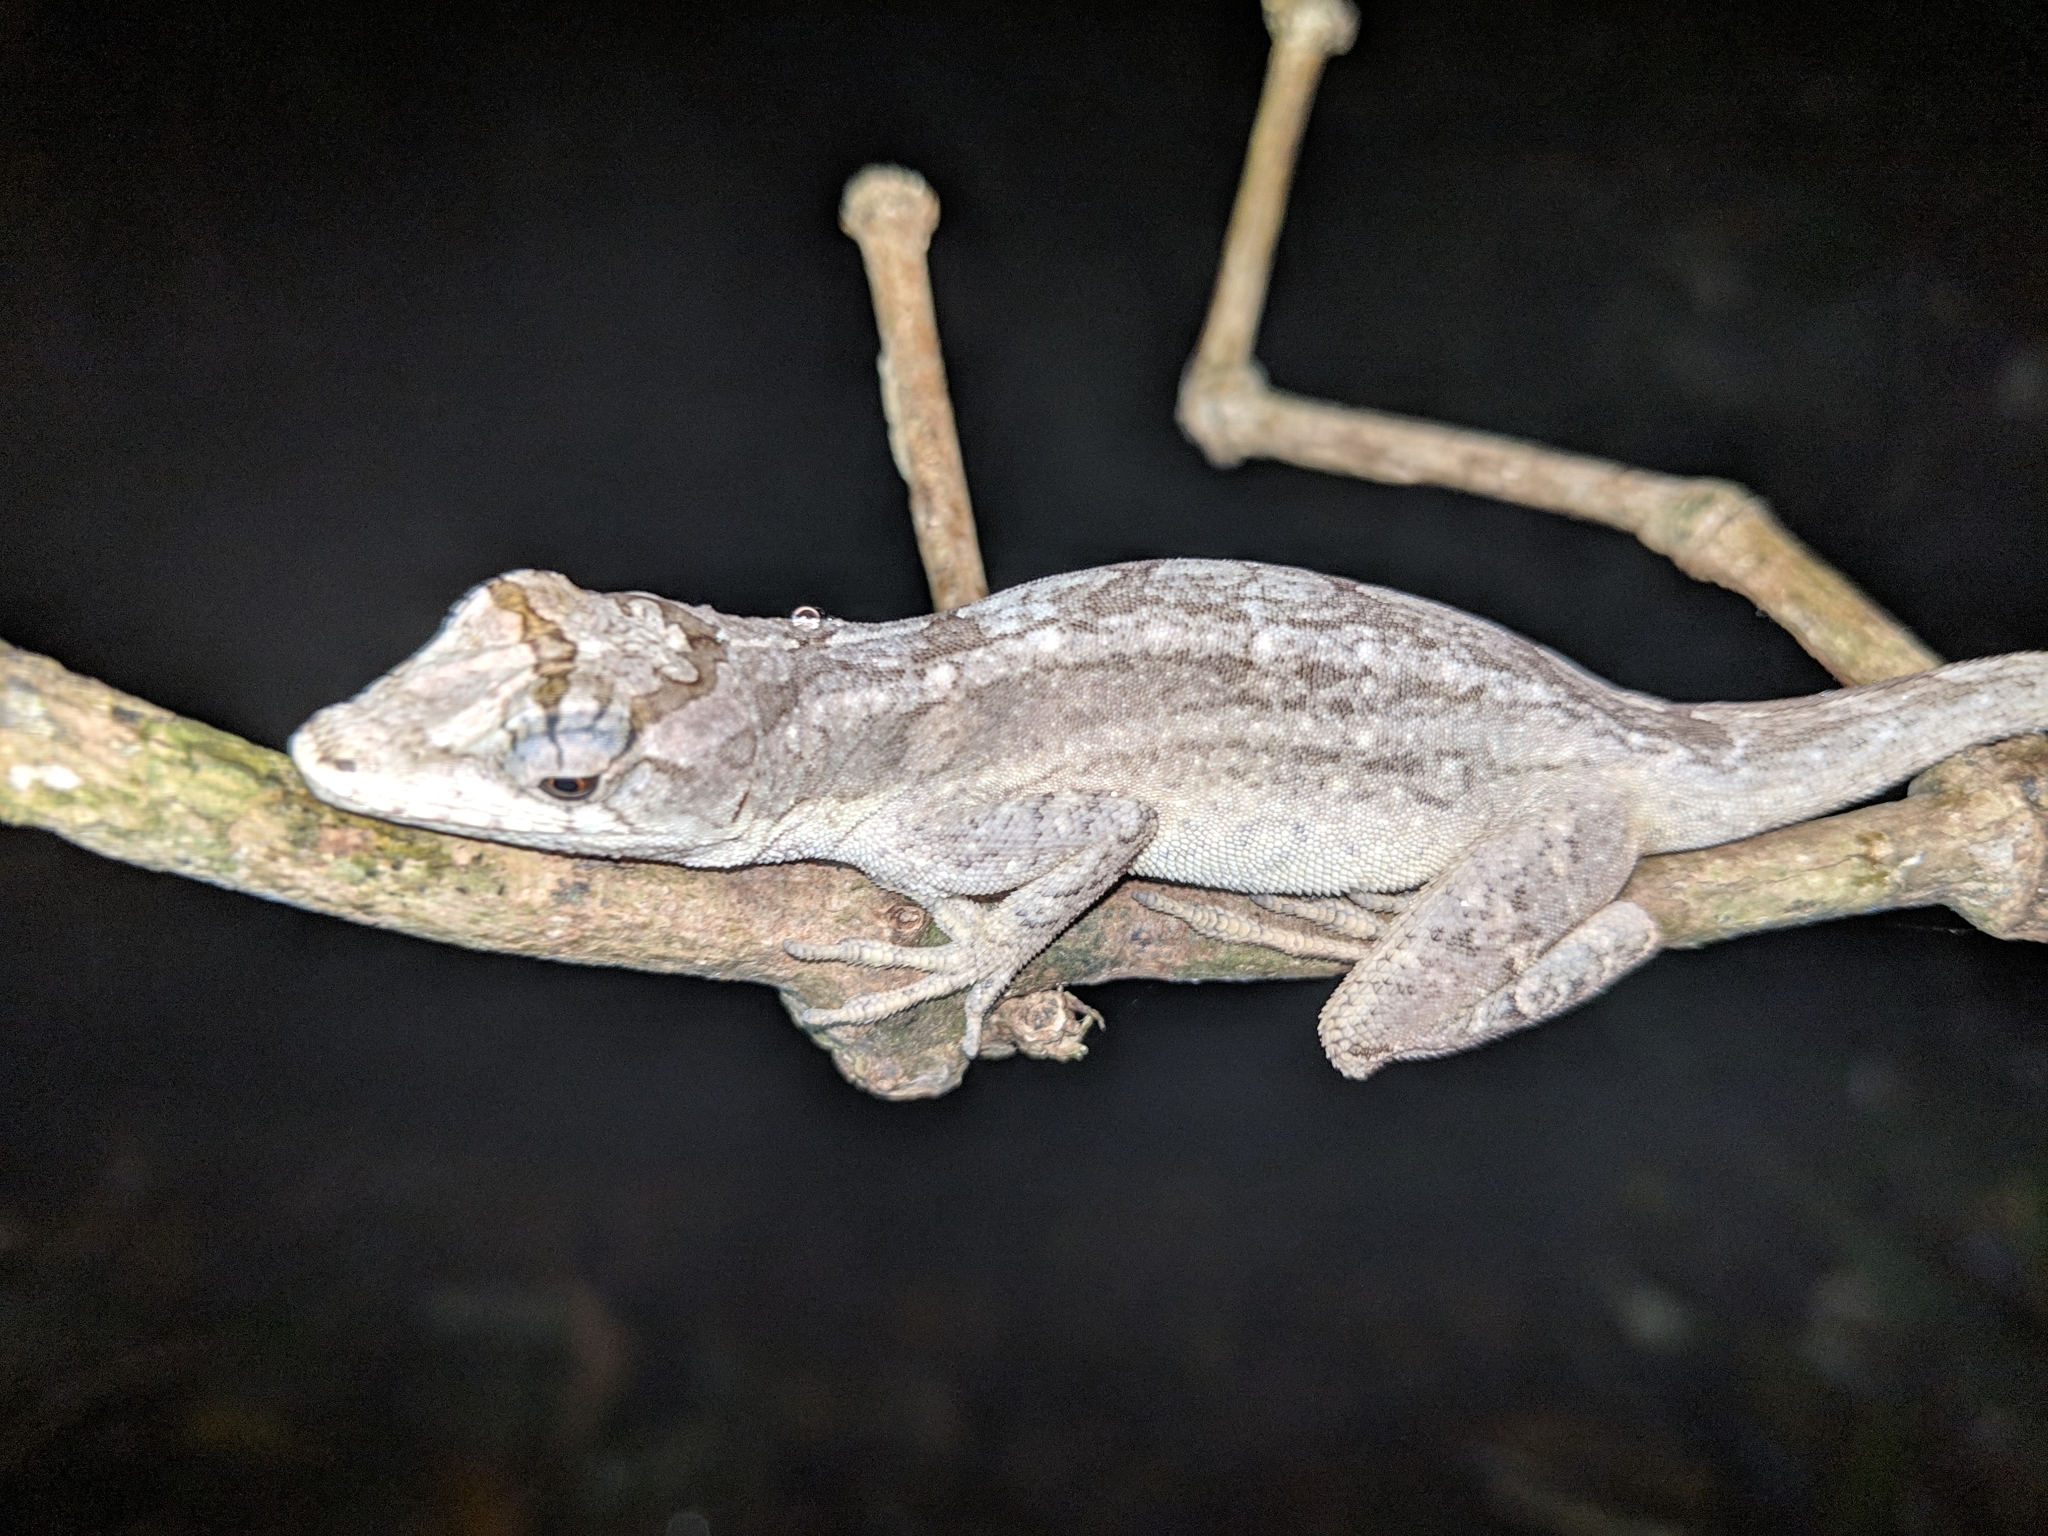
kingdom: Animalia
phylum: Chordata
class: Squamata
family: Dactyloidae
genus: Anolis
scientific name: Anolis lemurinus
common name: Ghost anole
